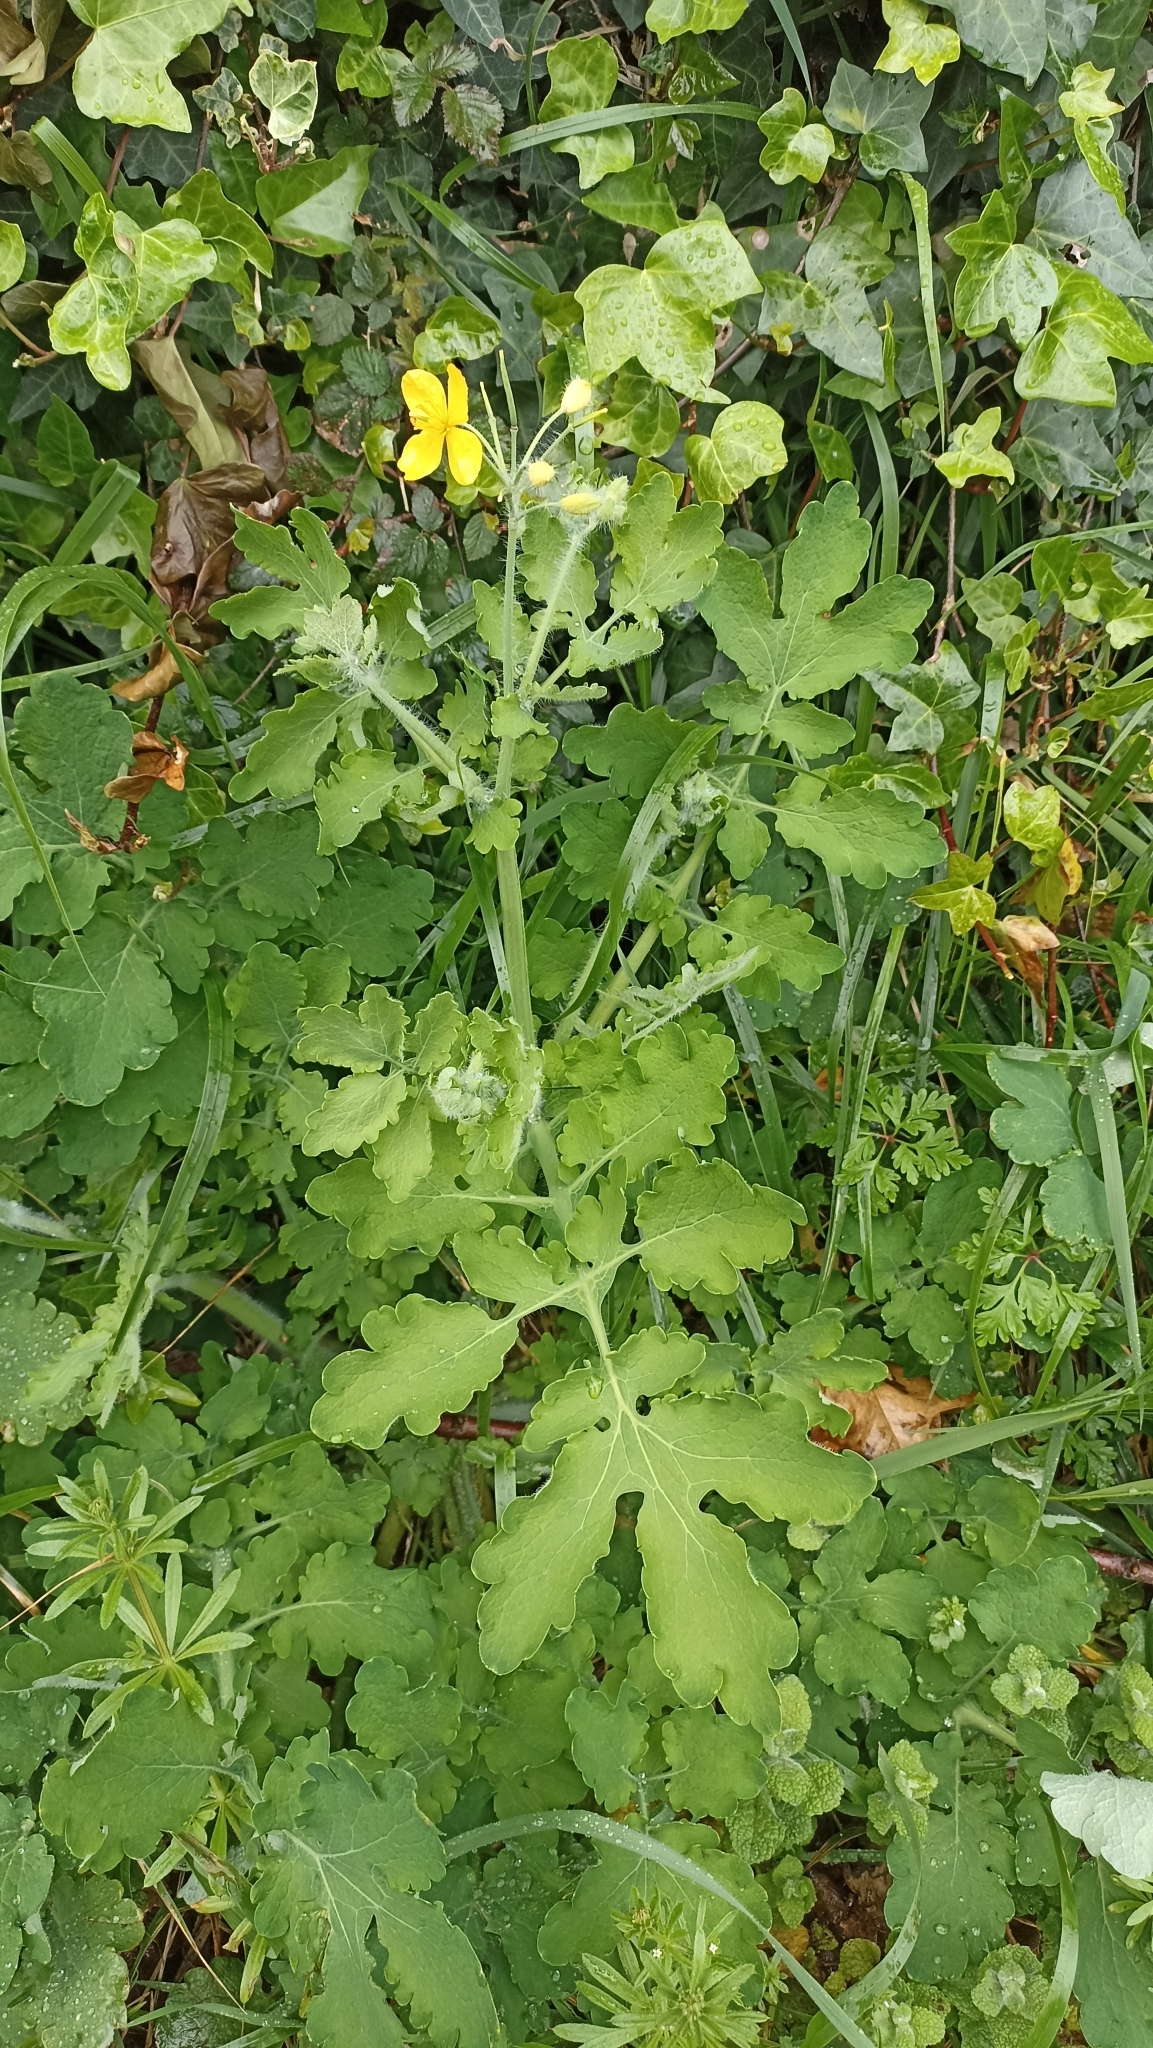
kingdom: Plantae
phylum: Tracheophyta
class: Magnoliopsida
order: Ranunculales
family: Papaveraceae
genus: Chelidonium
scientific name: Chelidonium majus
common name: Greater celandine
